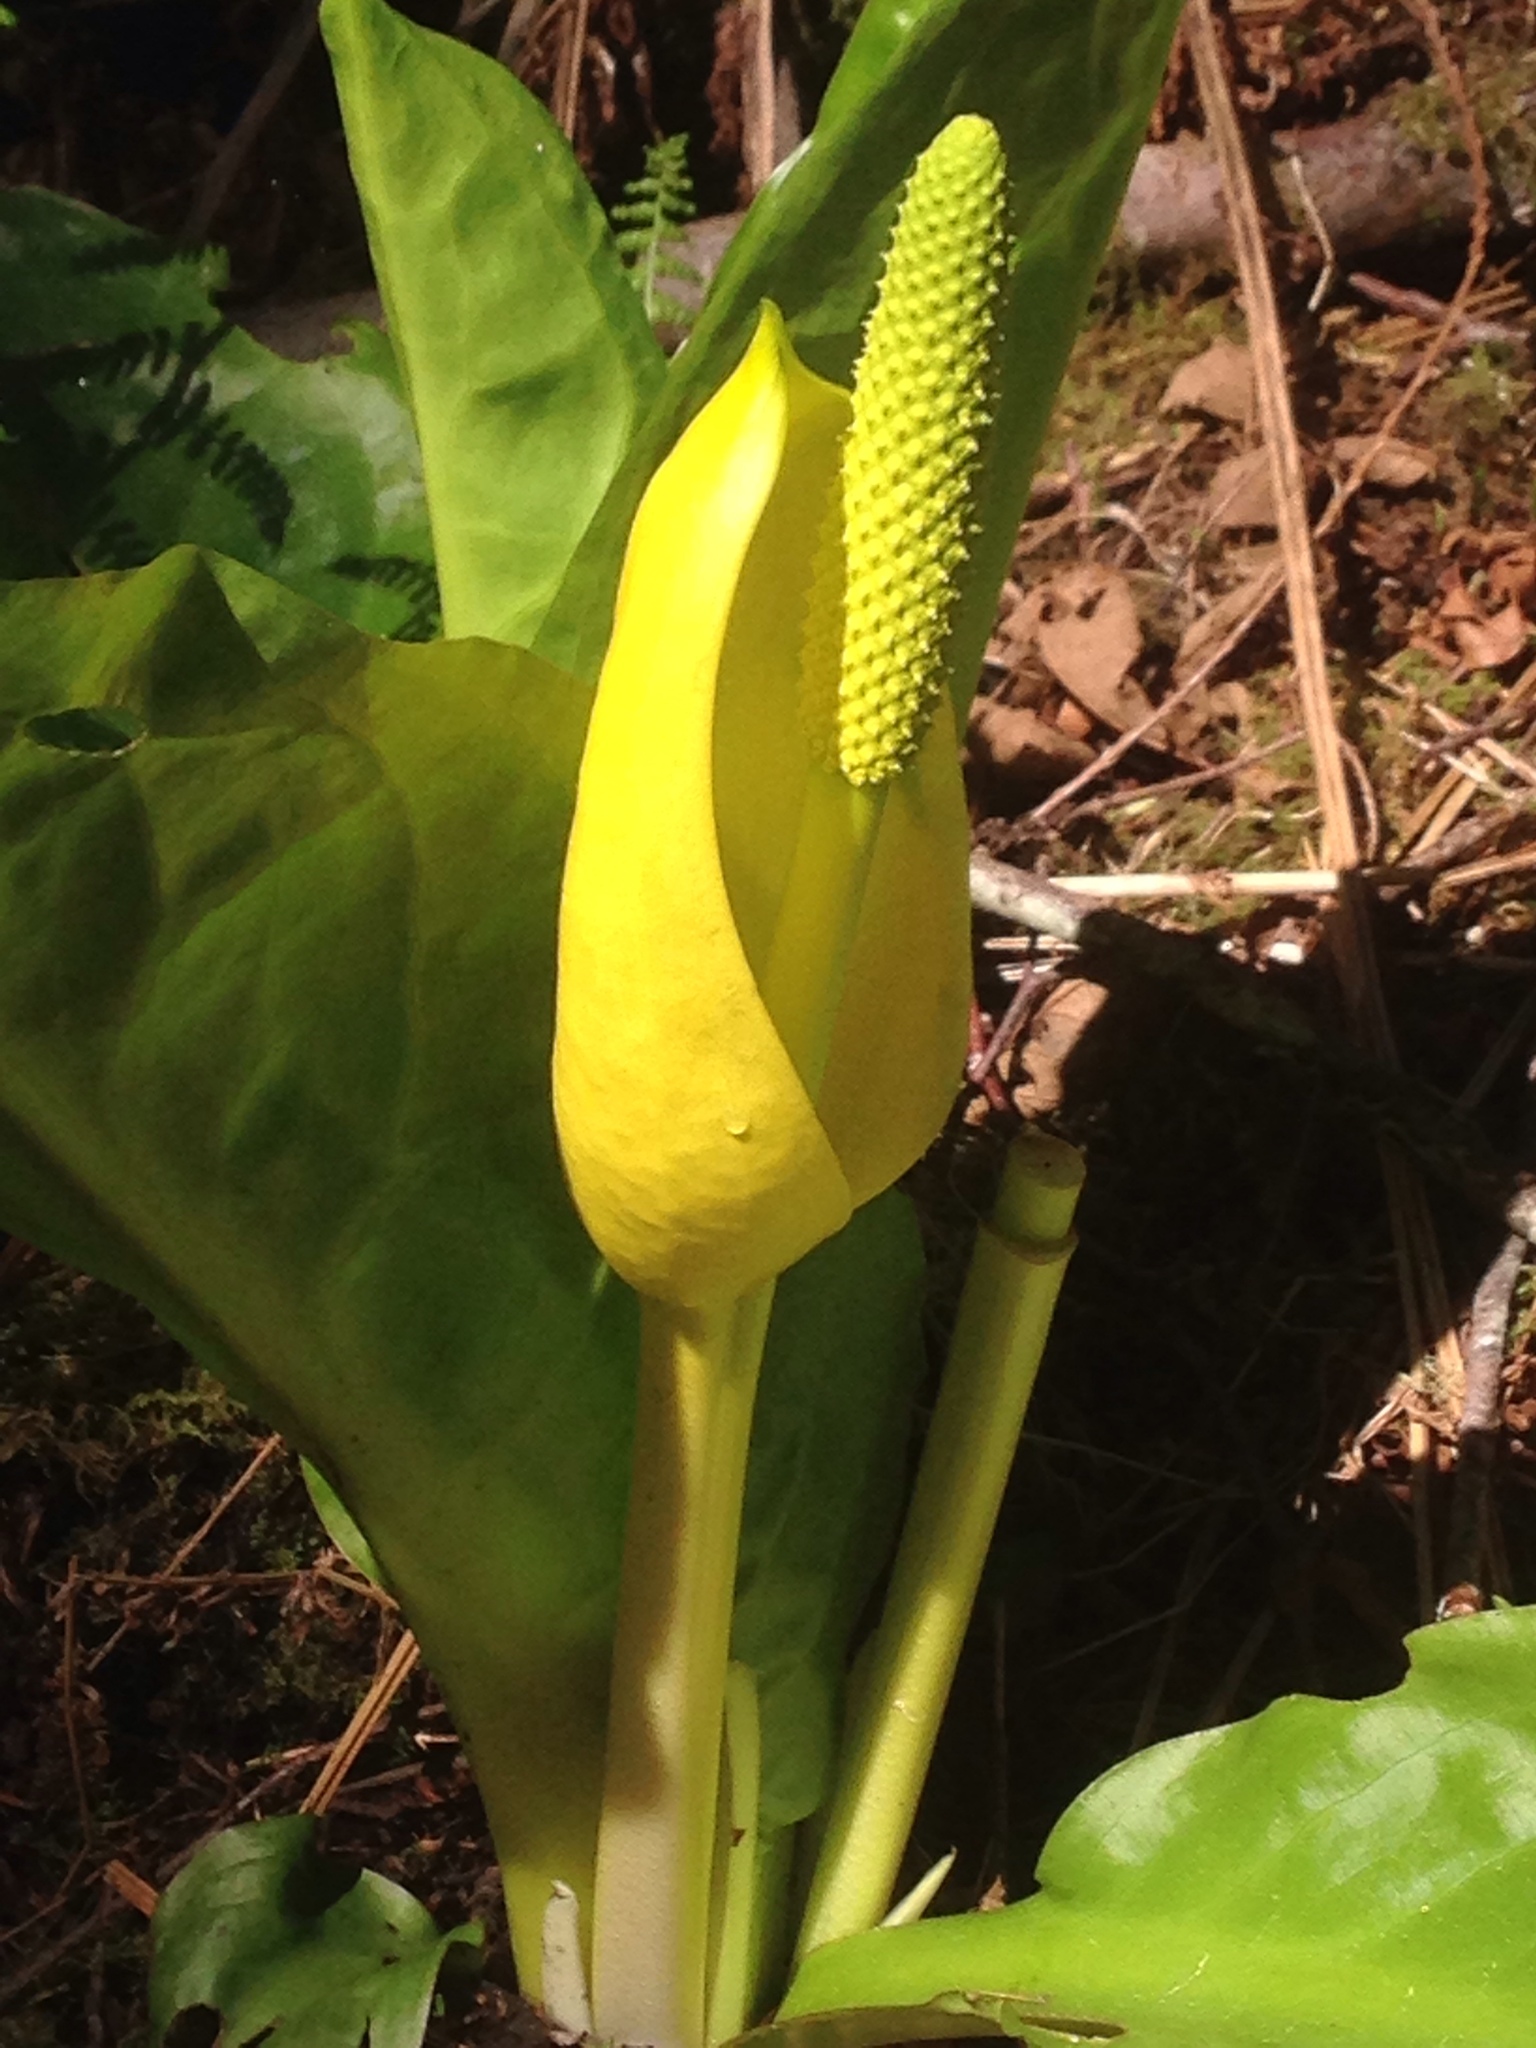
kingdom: Plantae
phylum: Tracheophyta
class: Liliopsida
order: Alismatales
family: Araceae
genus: Lysichiton
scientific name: Lysichiton americanus
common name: American skunk cabbage
